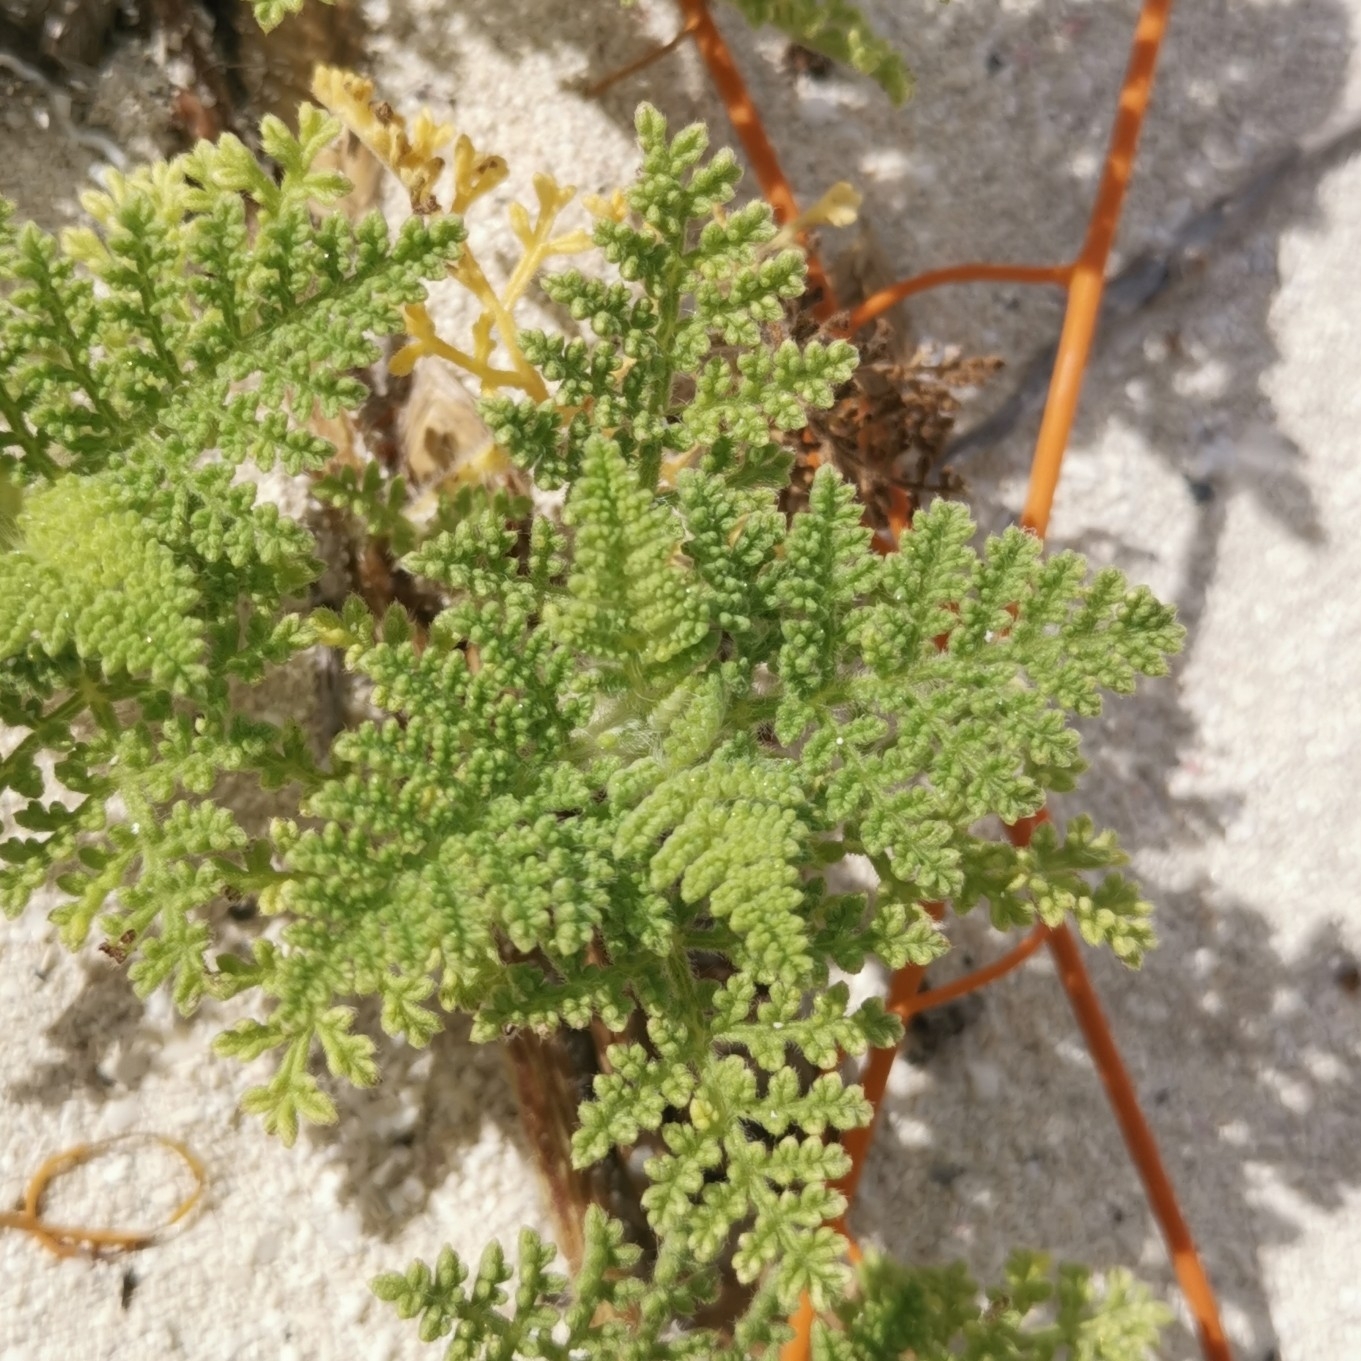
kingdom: Plantae
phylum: Tracheophyta
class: Magnoliopsida
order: Asterales
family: Asteraceae
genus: Ambrosia
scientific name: Ambrosia hispida
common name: Coastal ragweed
